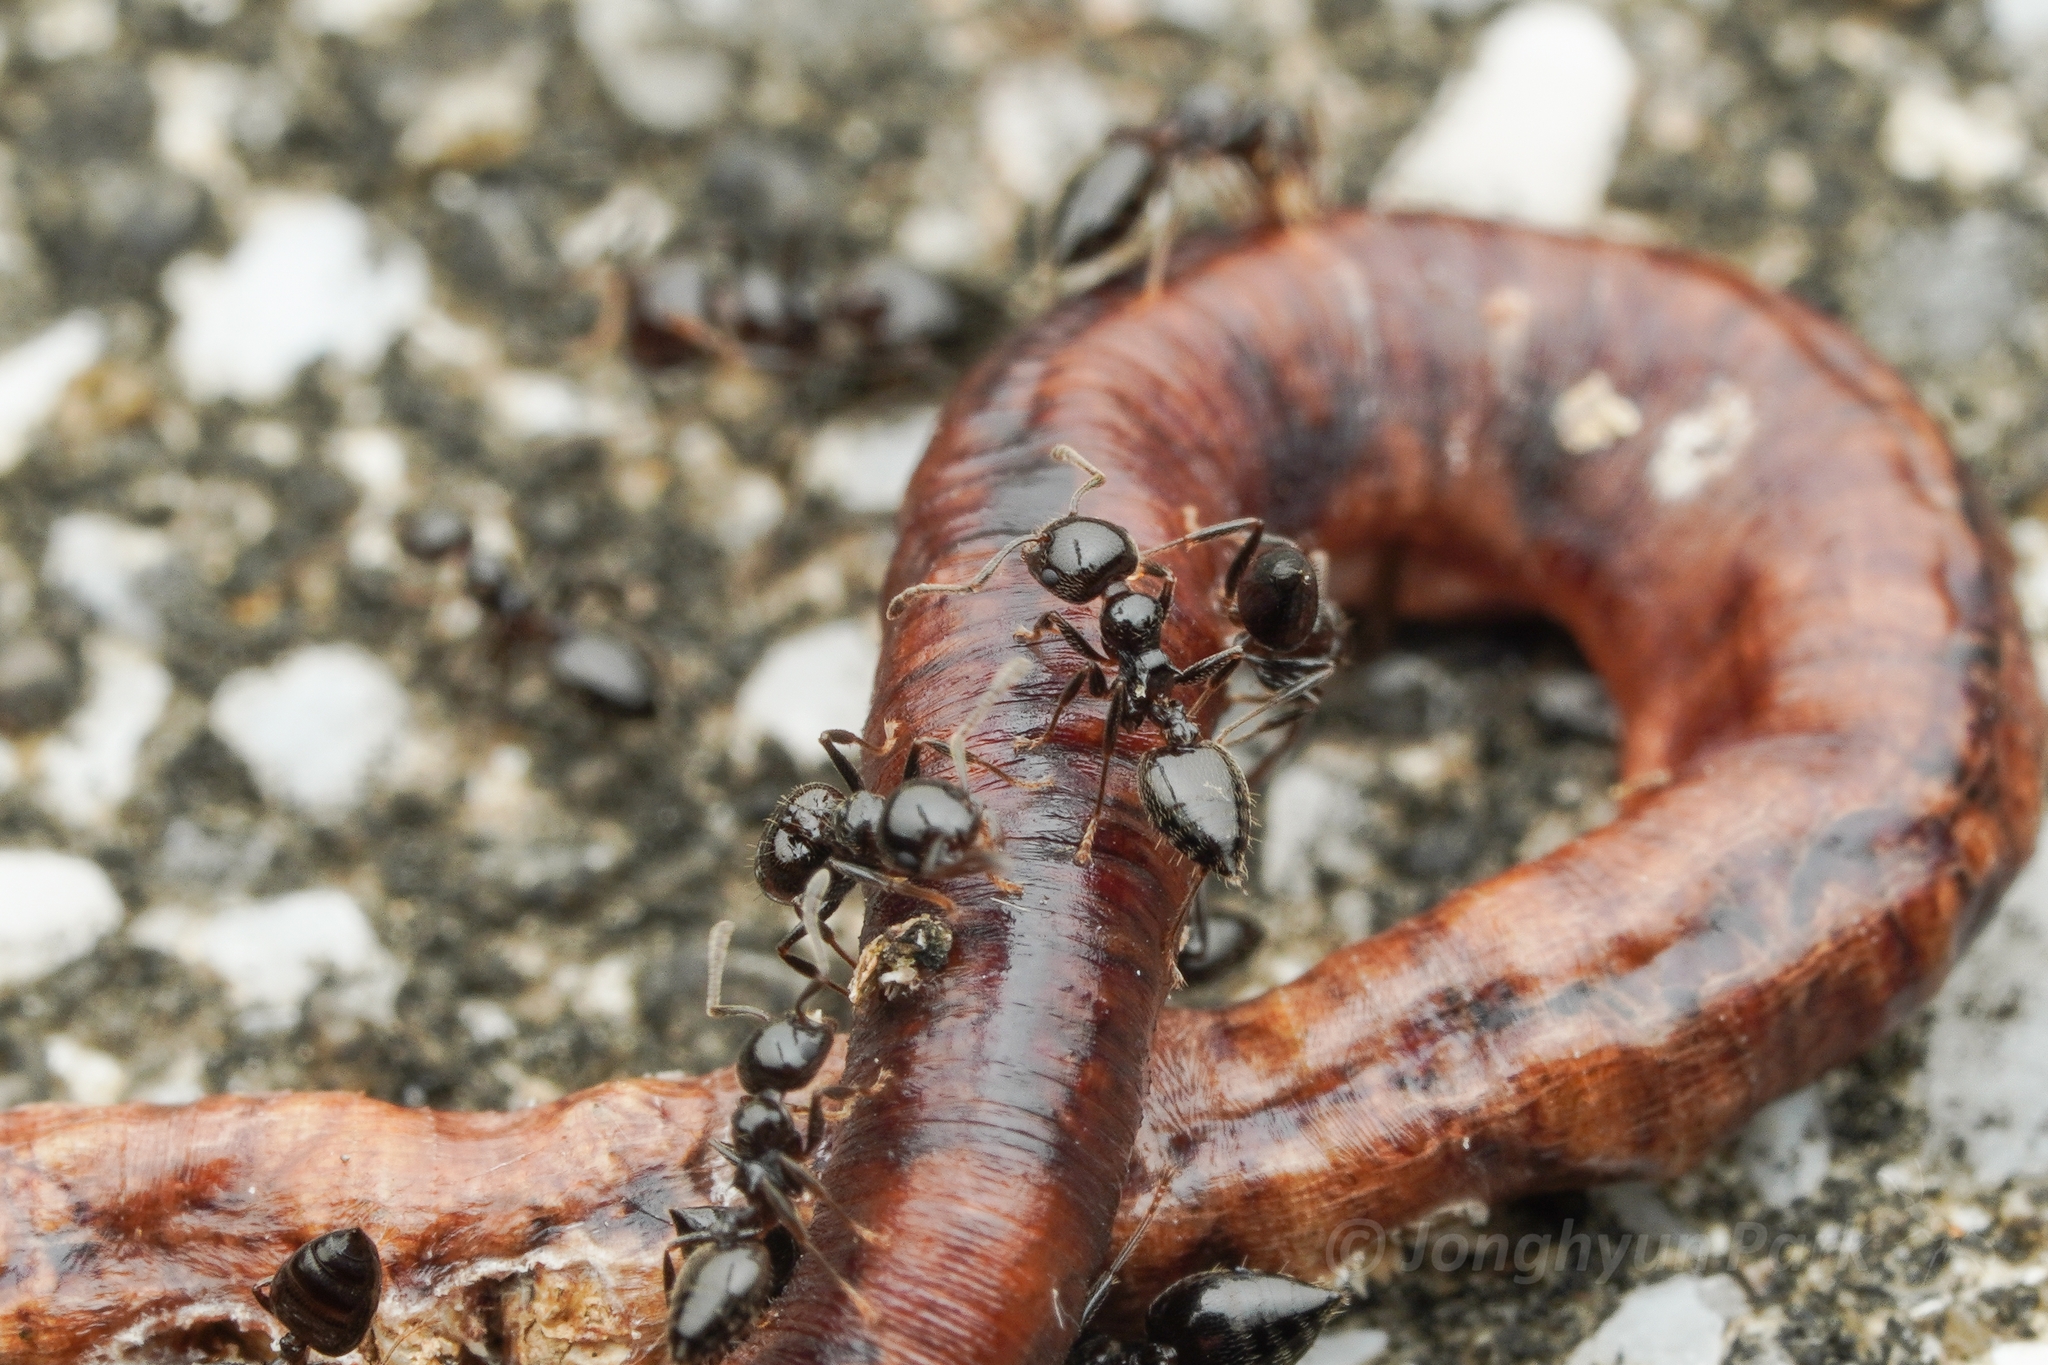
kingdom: Animalia
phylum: Arthropoda
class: Insecta
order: Hymenoptera
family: Formicidae
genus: Crematogaster
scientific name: Crematogaster nawai
